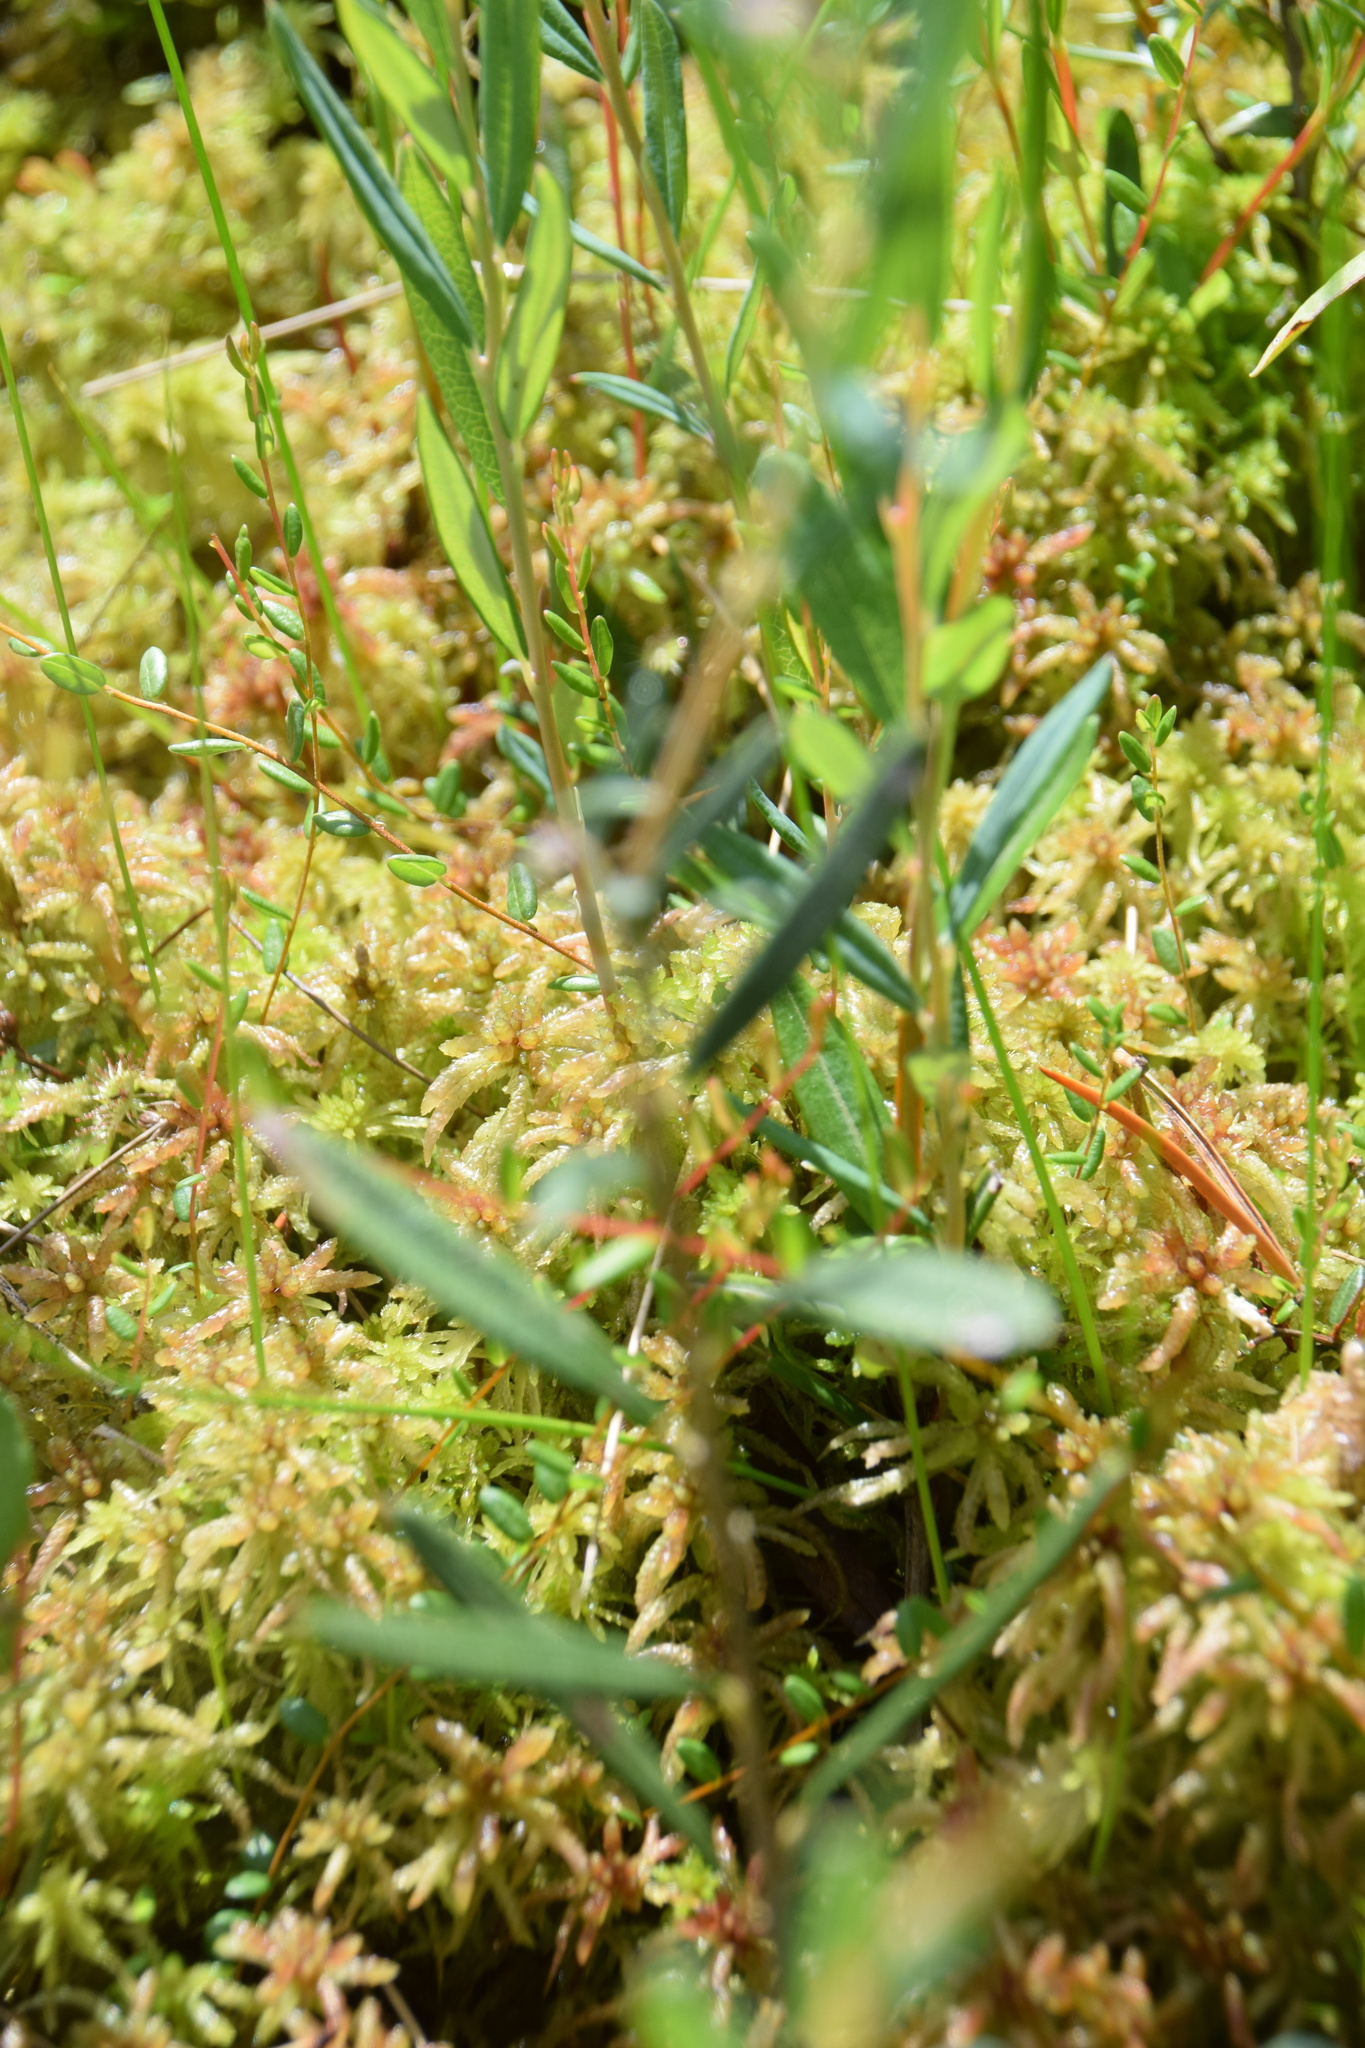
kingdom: Plantae
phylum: Tracheophyta
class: Magnoliopsida
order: Ericales
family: Ericaceae
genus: Andromeda
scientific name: Andromeda polifolia
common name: Bog-rosemary
